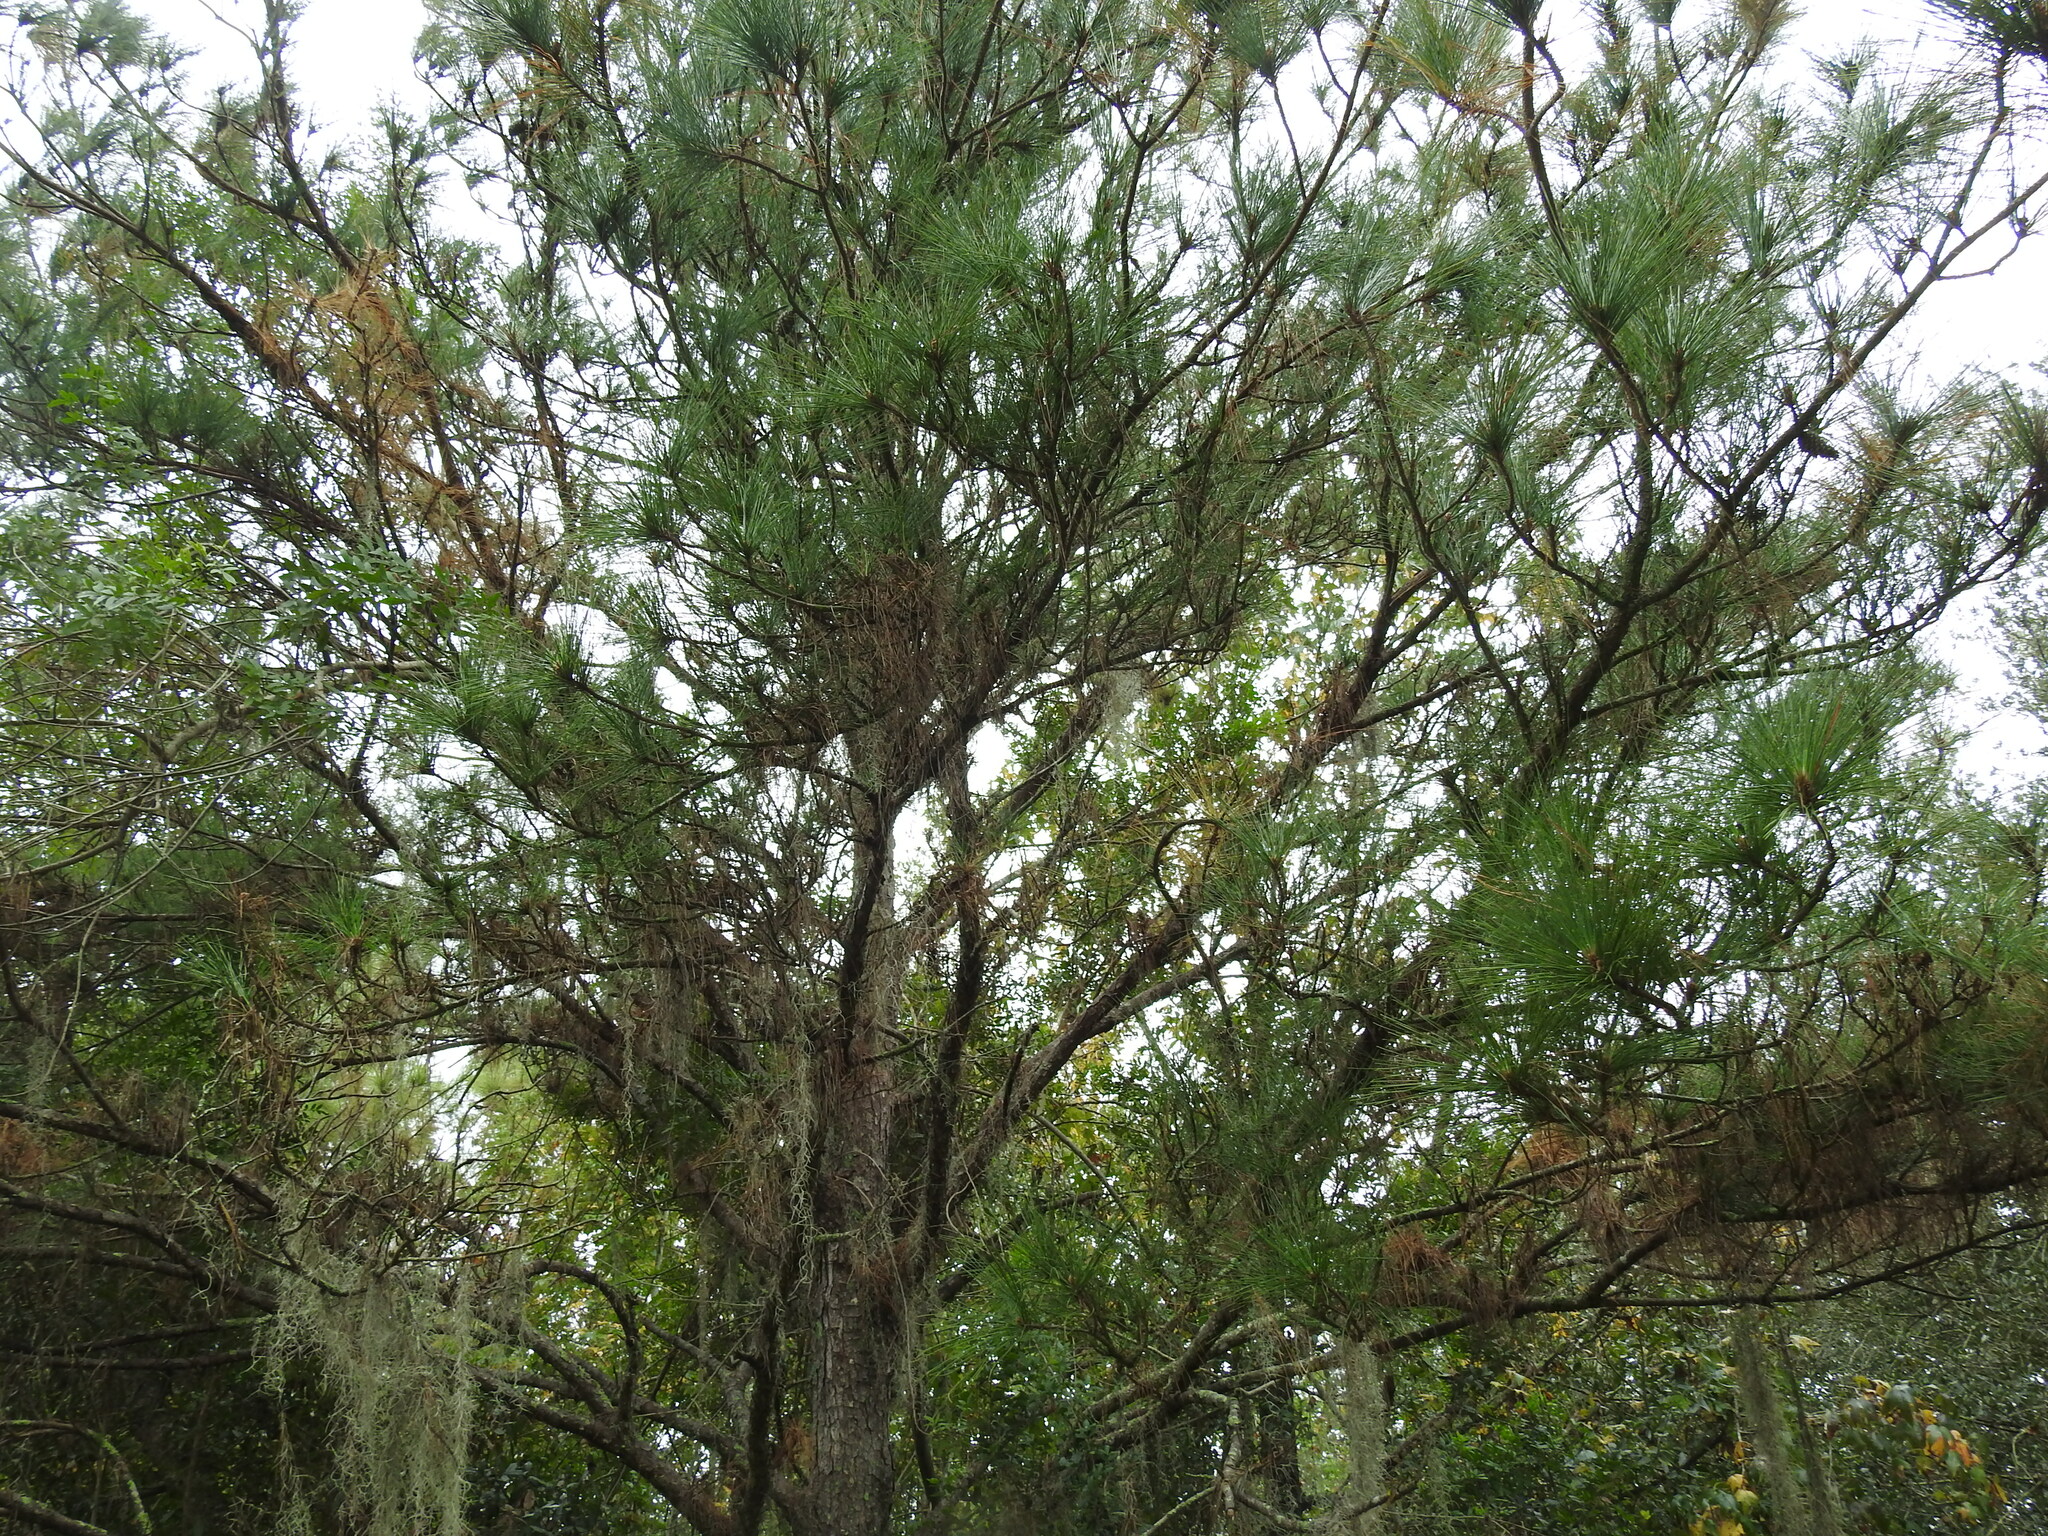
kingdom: Plantae
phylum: Tracheophyta
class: Pinopsida
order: Pinales
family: Pinaceae
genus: Pinus
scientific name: Pinus elliottii
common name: Slash pine
